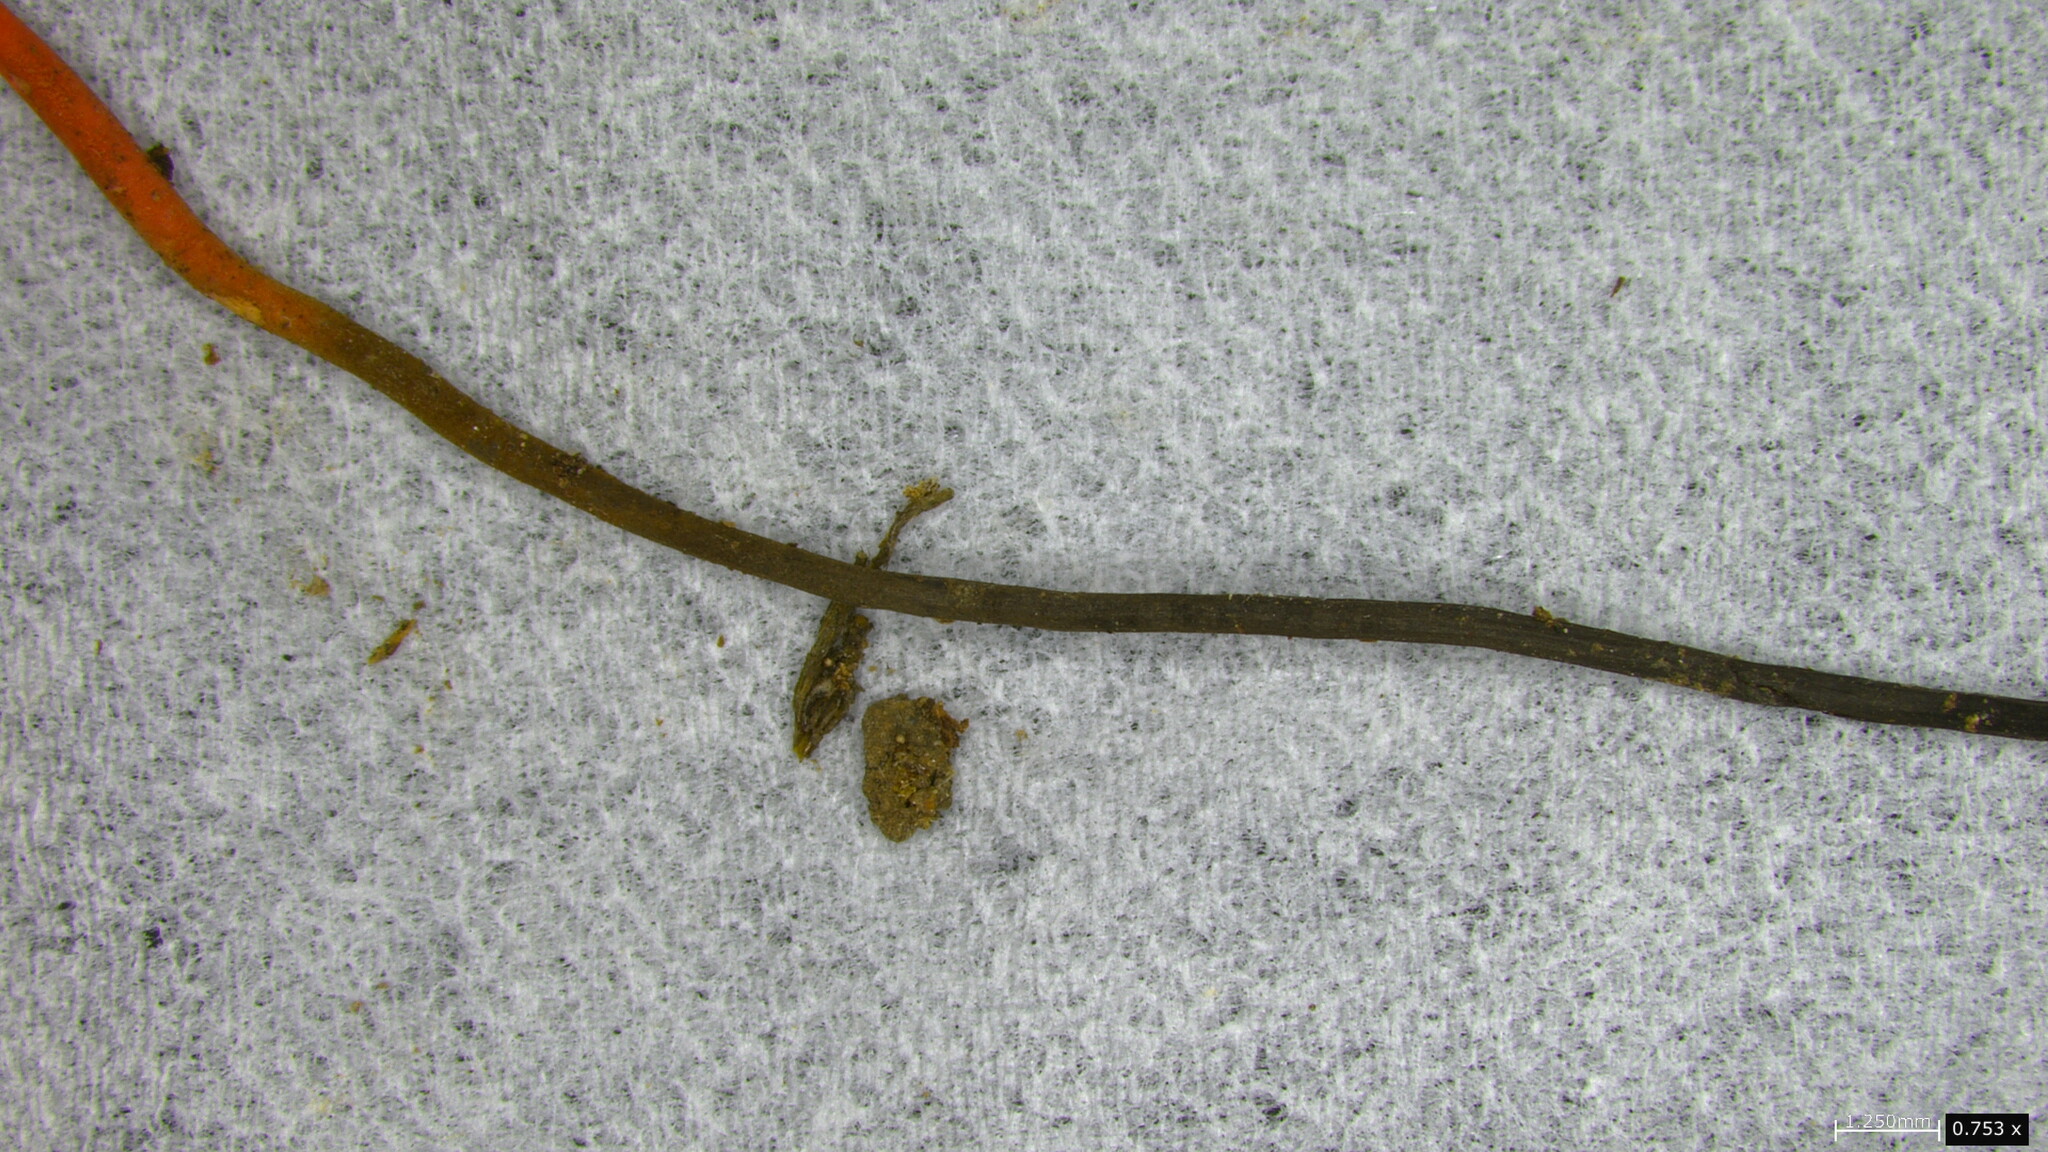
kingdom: Fungi
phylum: Ascomycota
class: Sordariomycetes
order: Hypocreales
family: Ophiocordycipitaceae
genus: Ophiocordyceps
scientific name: Ophiocordyceps nutans
